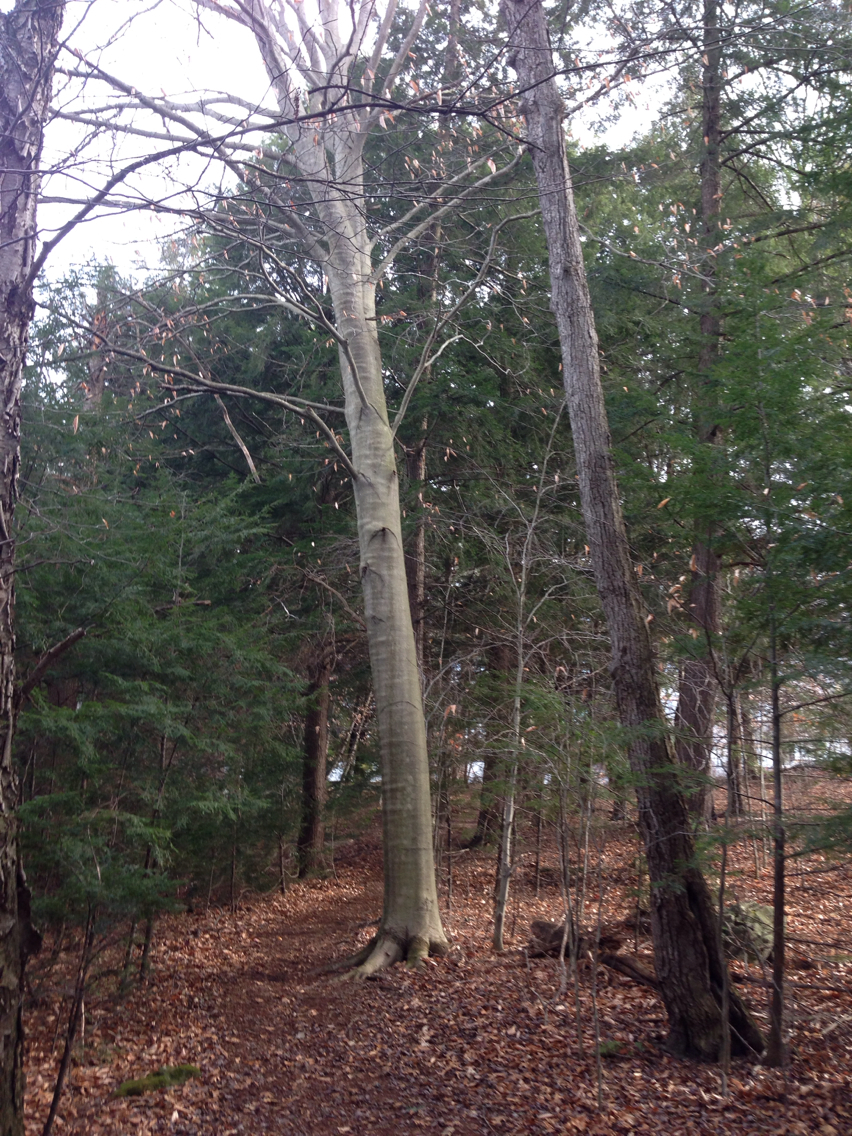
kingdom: Plantae
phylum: Tracheophyta
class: Magnoliopsida
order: Fagales
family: Fagaceae
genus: Fagus
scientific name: Fagus grandifolia
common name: American beech
